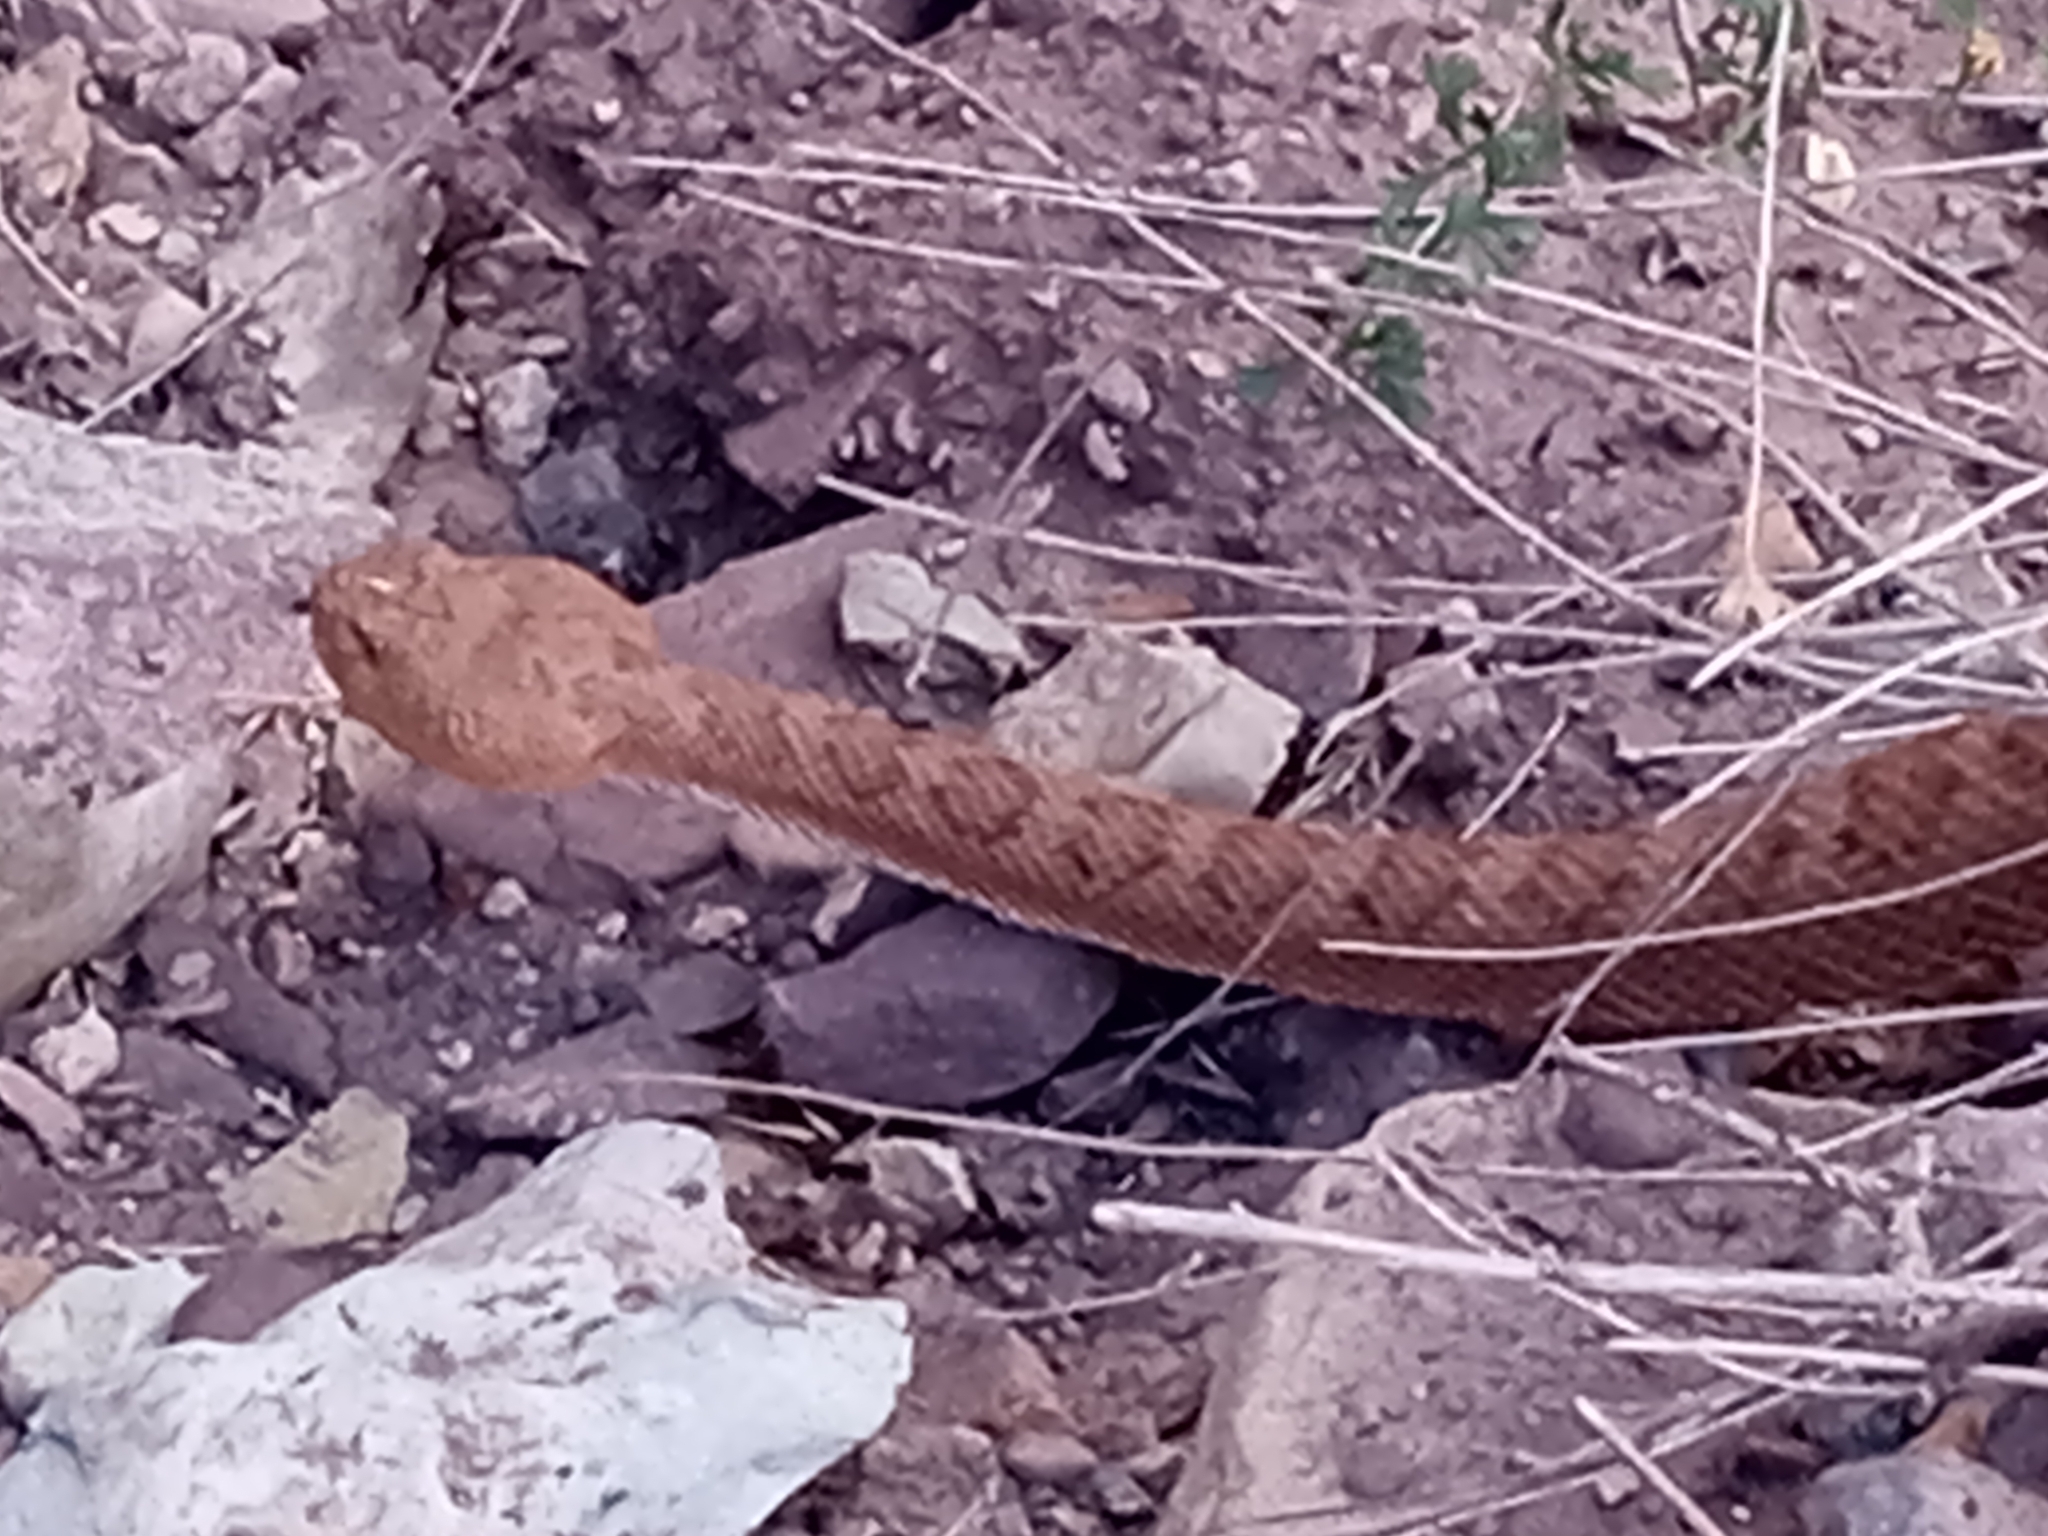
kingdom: Animalia
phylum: Chordata
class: Squamata
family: Viperidae
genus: Crotalus
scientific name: Crotalus oreganus
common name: Abyssus
